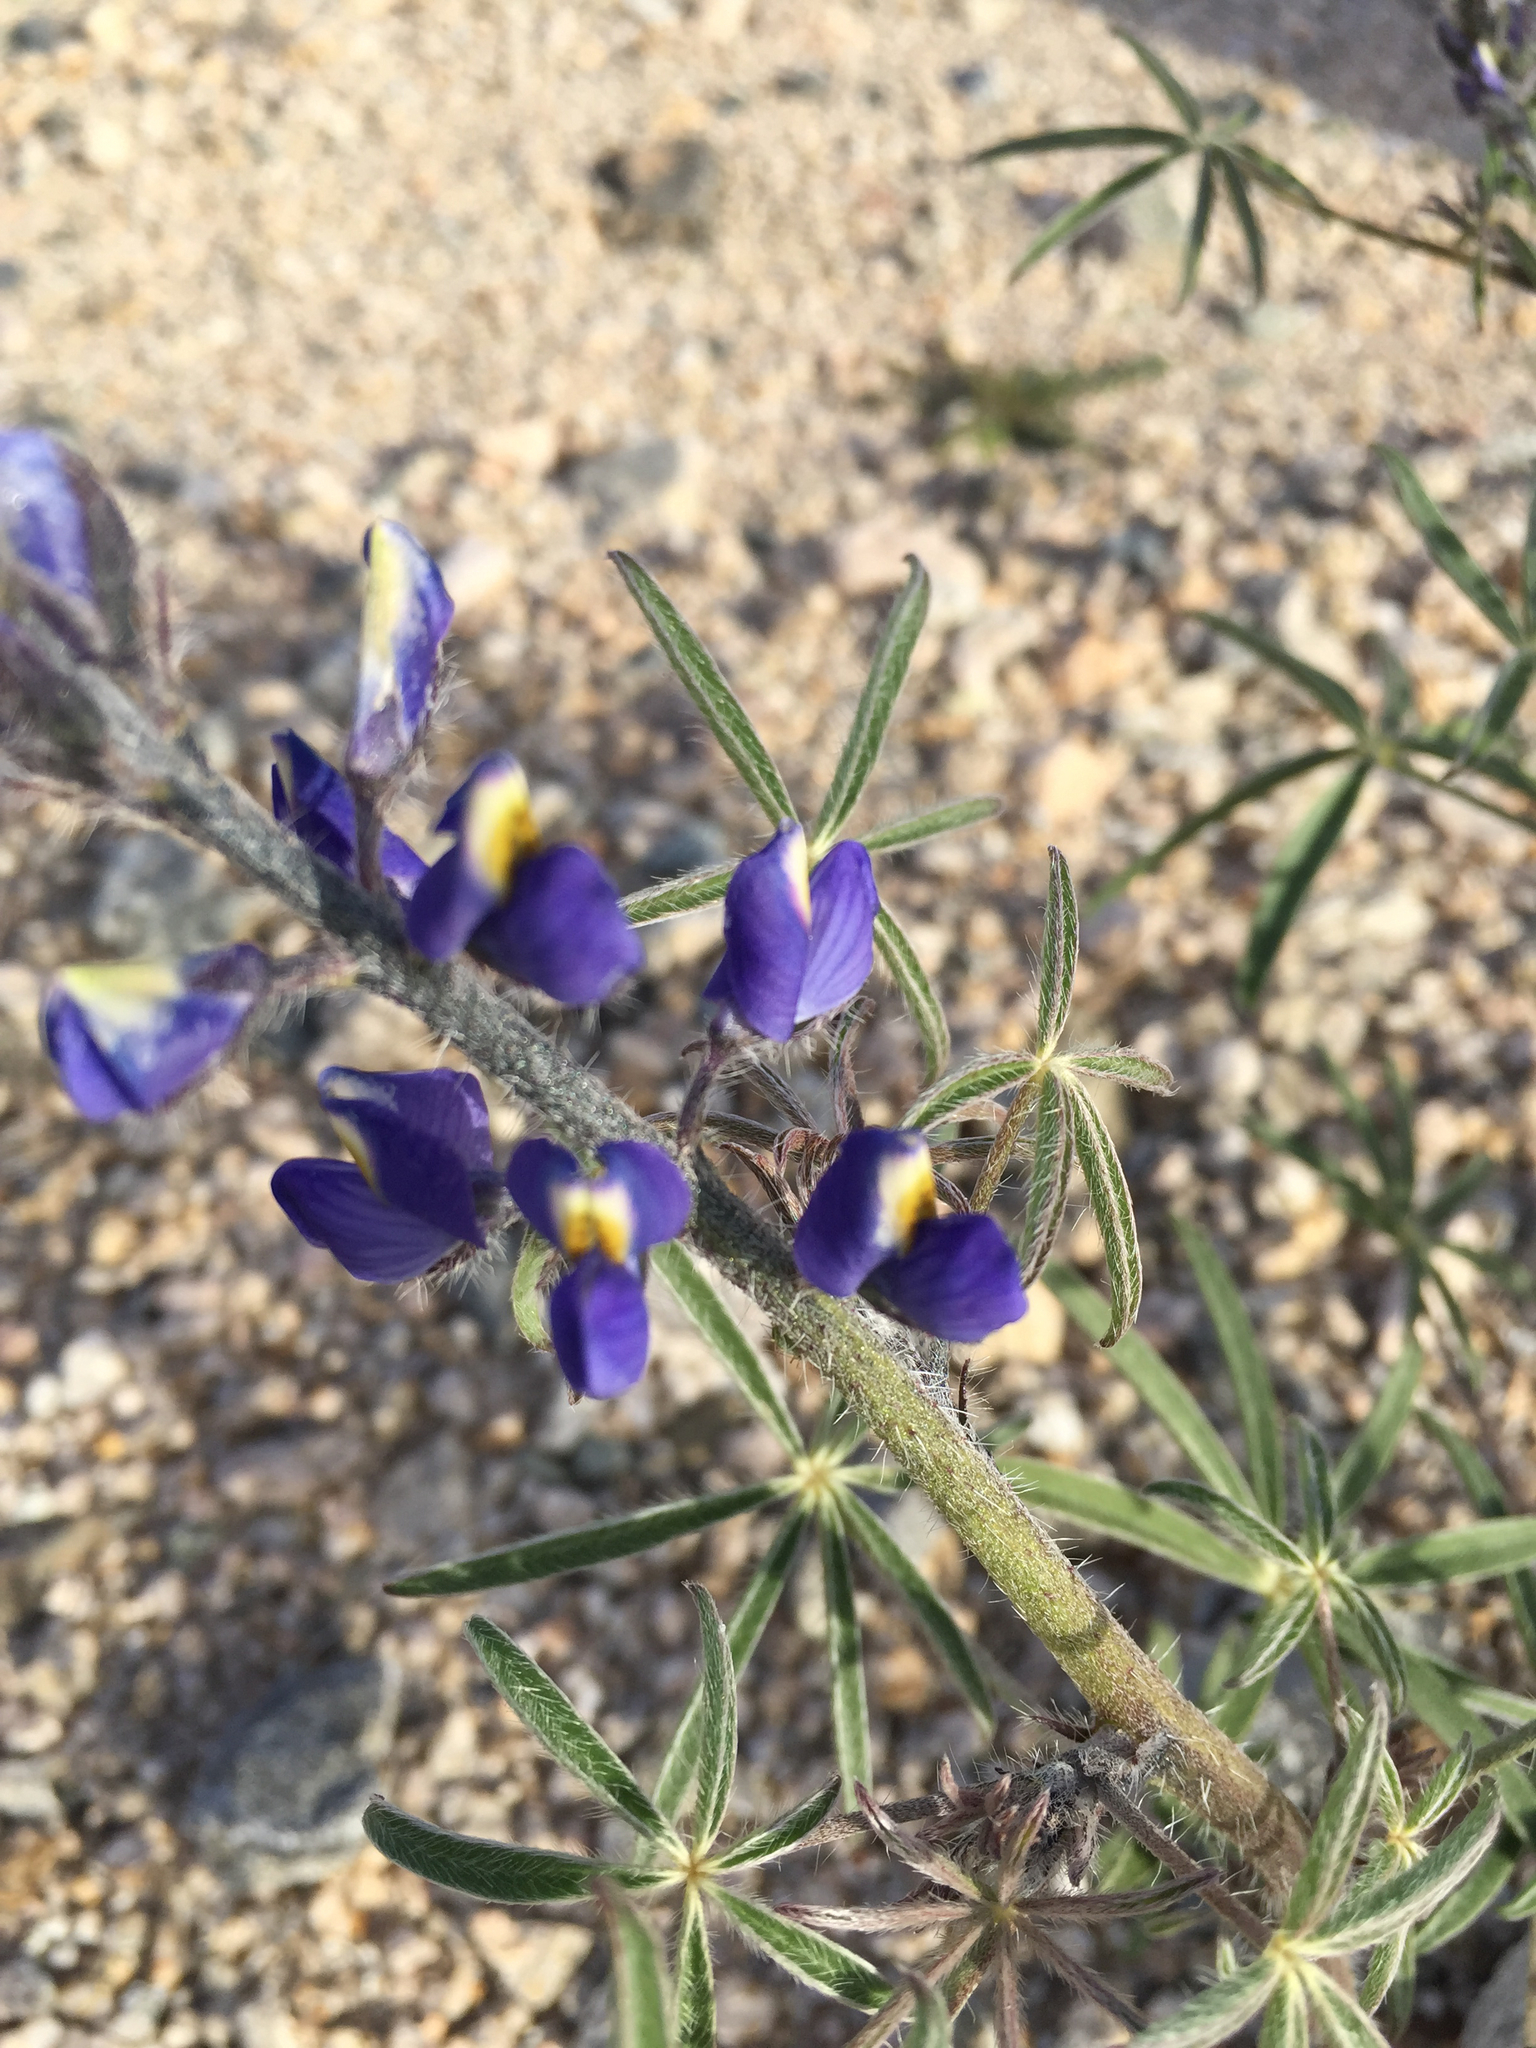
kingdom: Plantae
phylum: Tracheophyta
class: Magnoliopsida
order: Fabales
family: Fabaceae
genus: Lupinus
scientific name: Lupinus sparsiflorus
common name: Coulter's lupine
